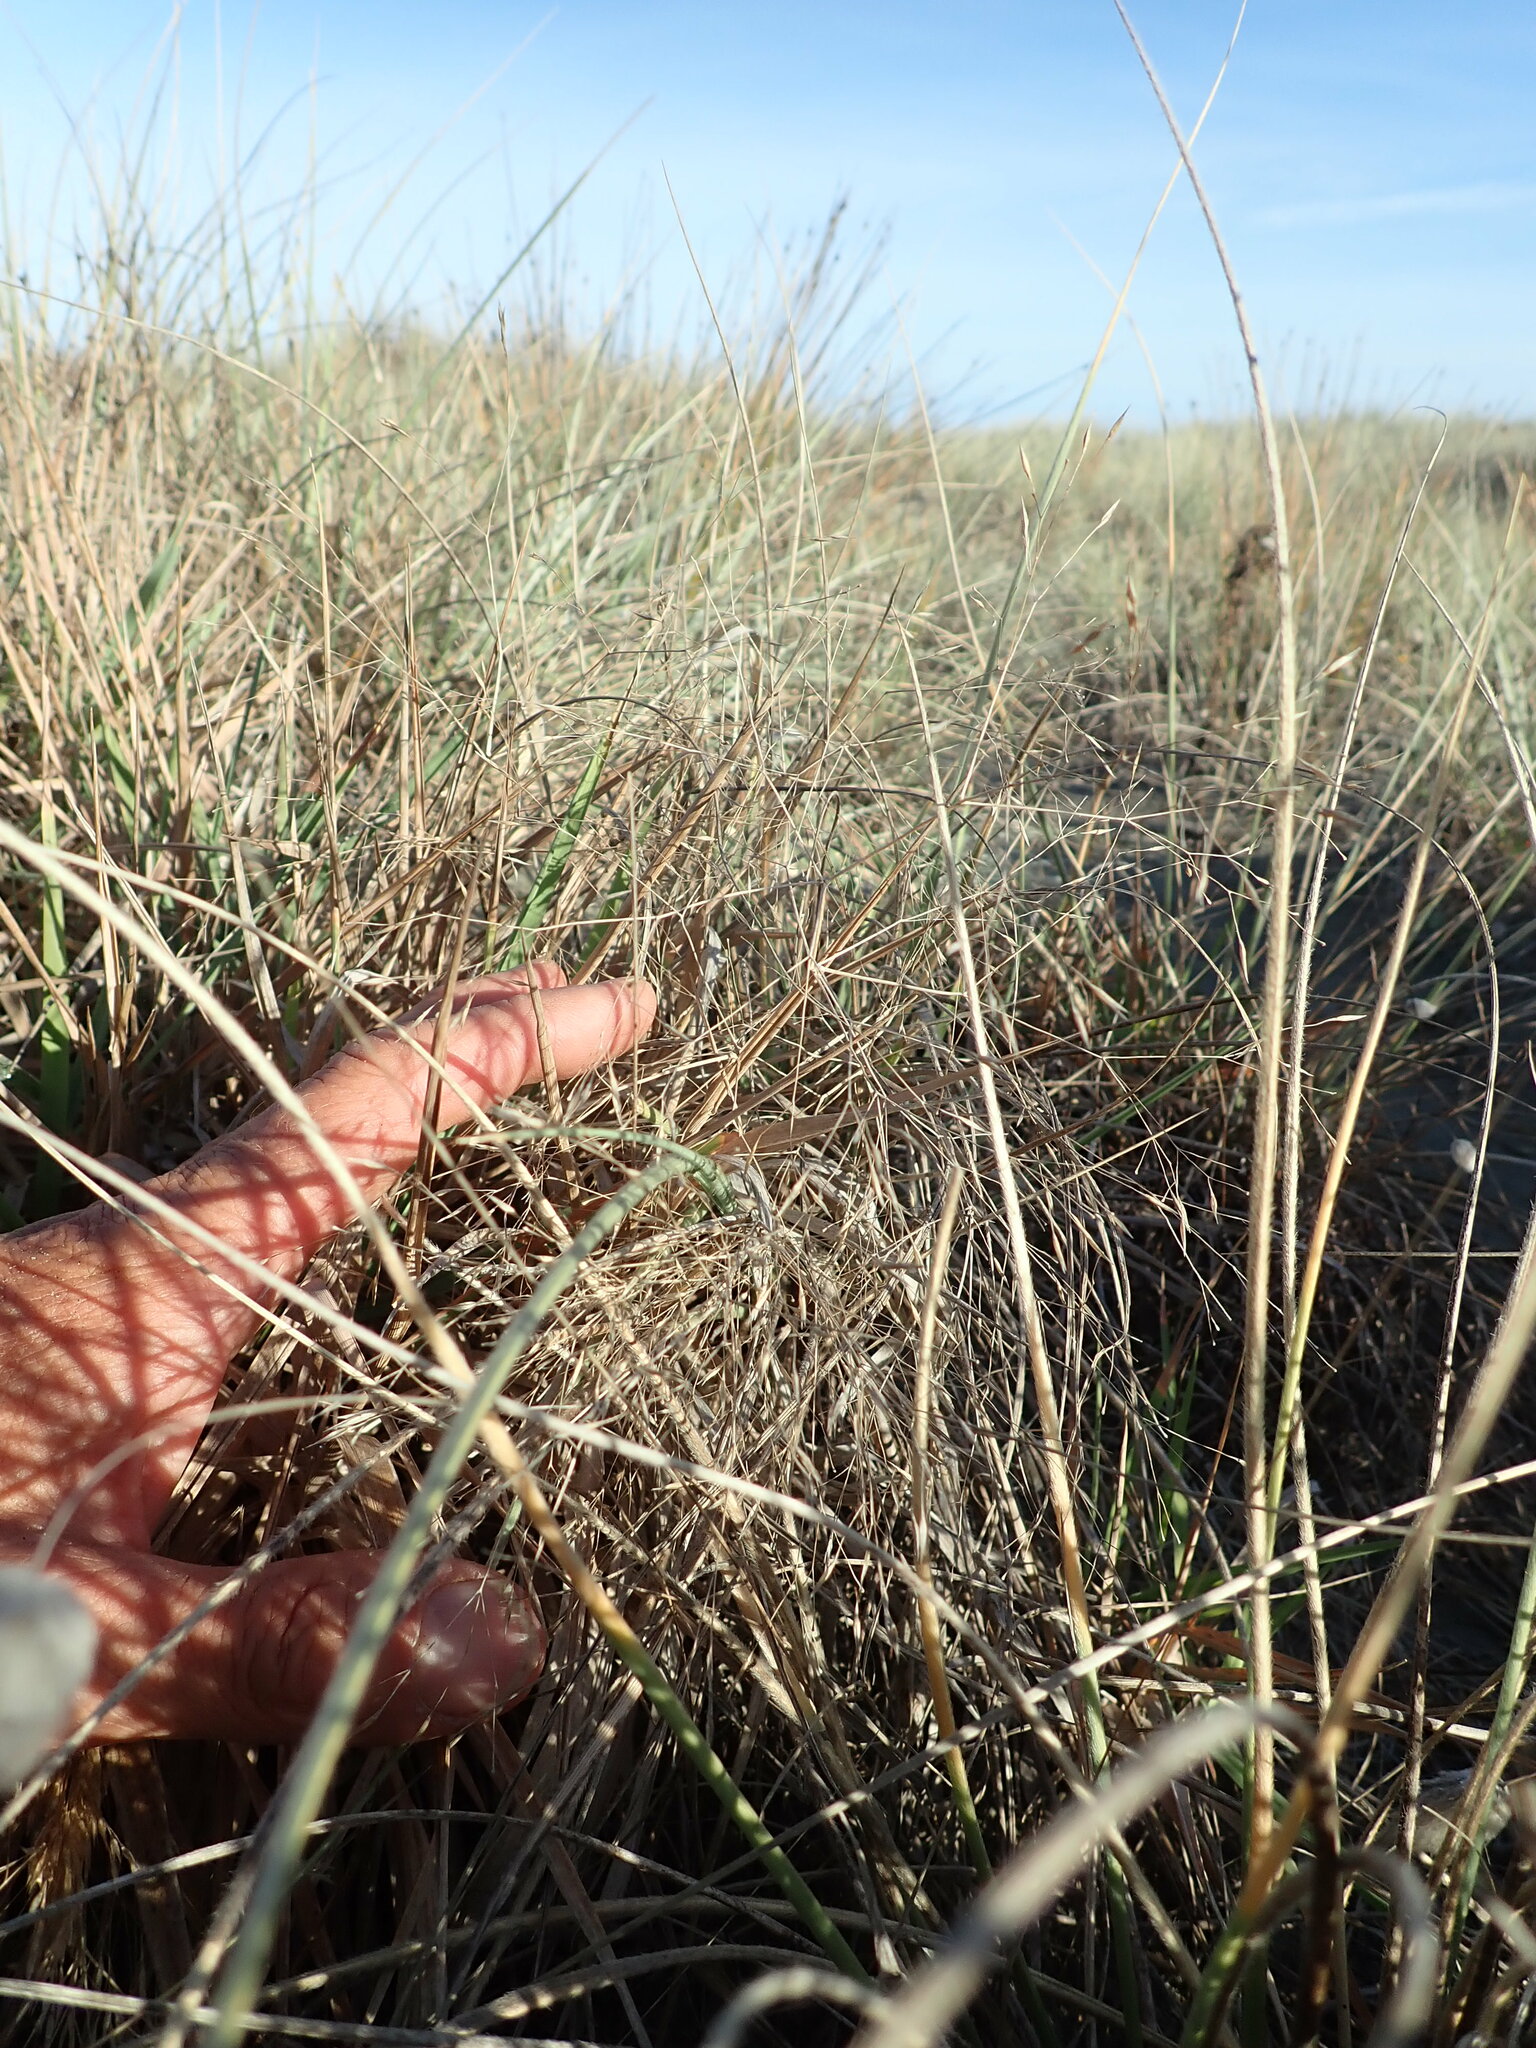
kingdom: Plantae
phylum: Tracheophyta
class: Liliopsida
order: Poales
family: Poaceae
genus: Lachnagrostis
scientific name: Lachnagrostis billardierei
